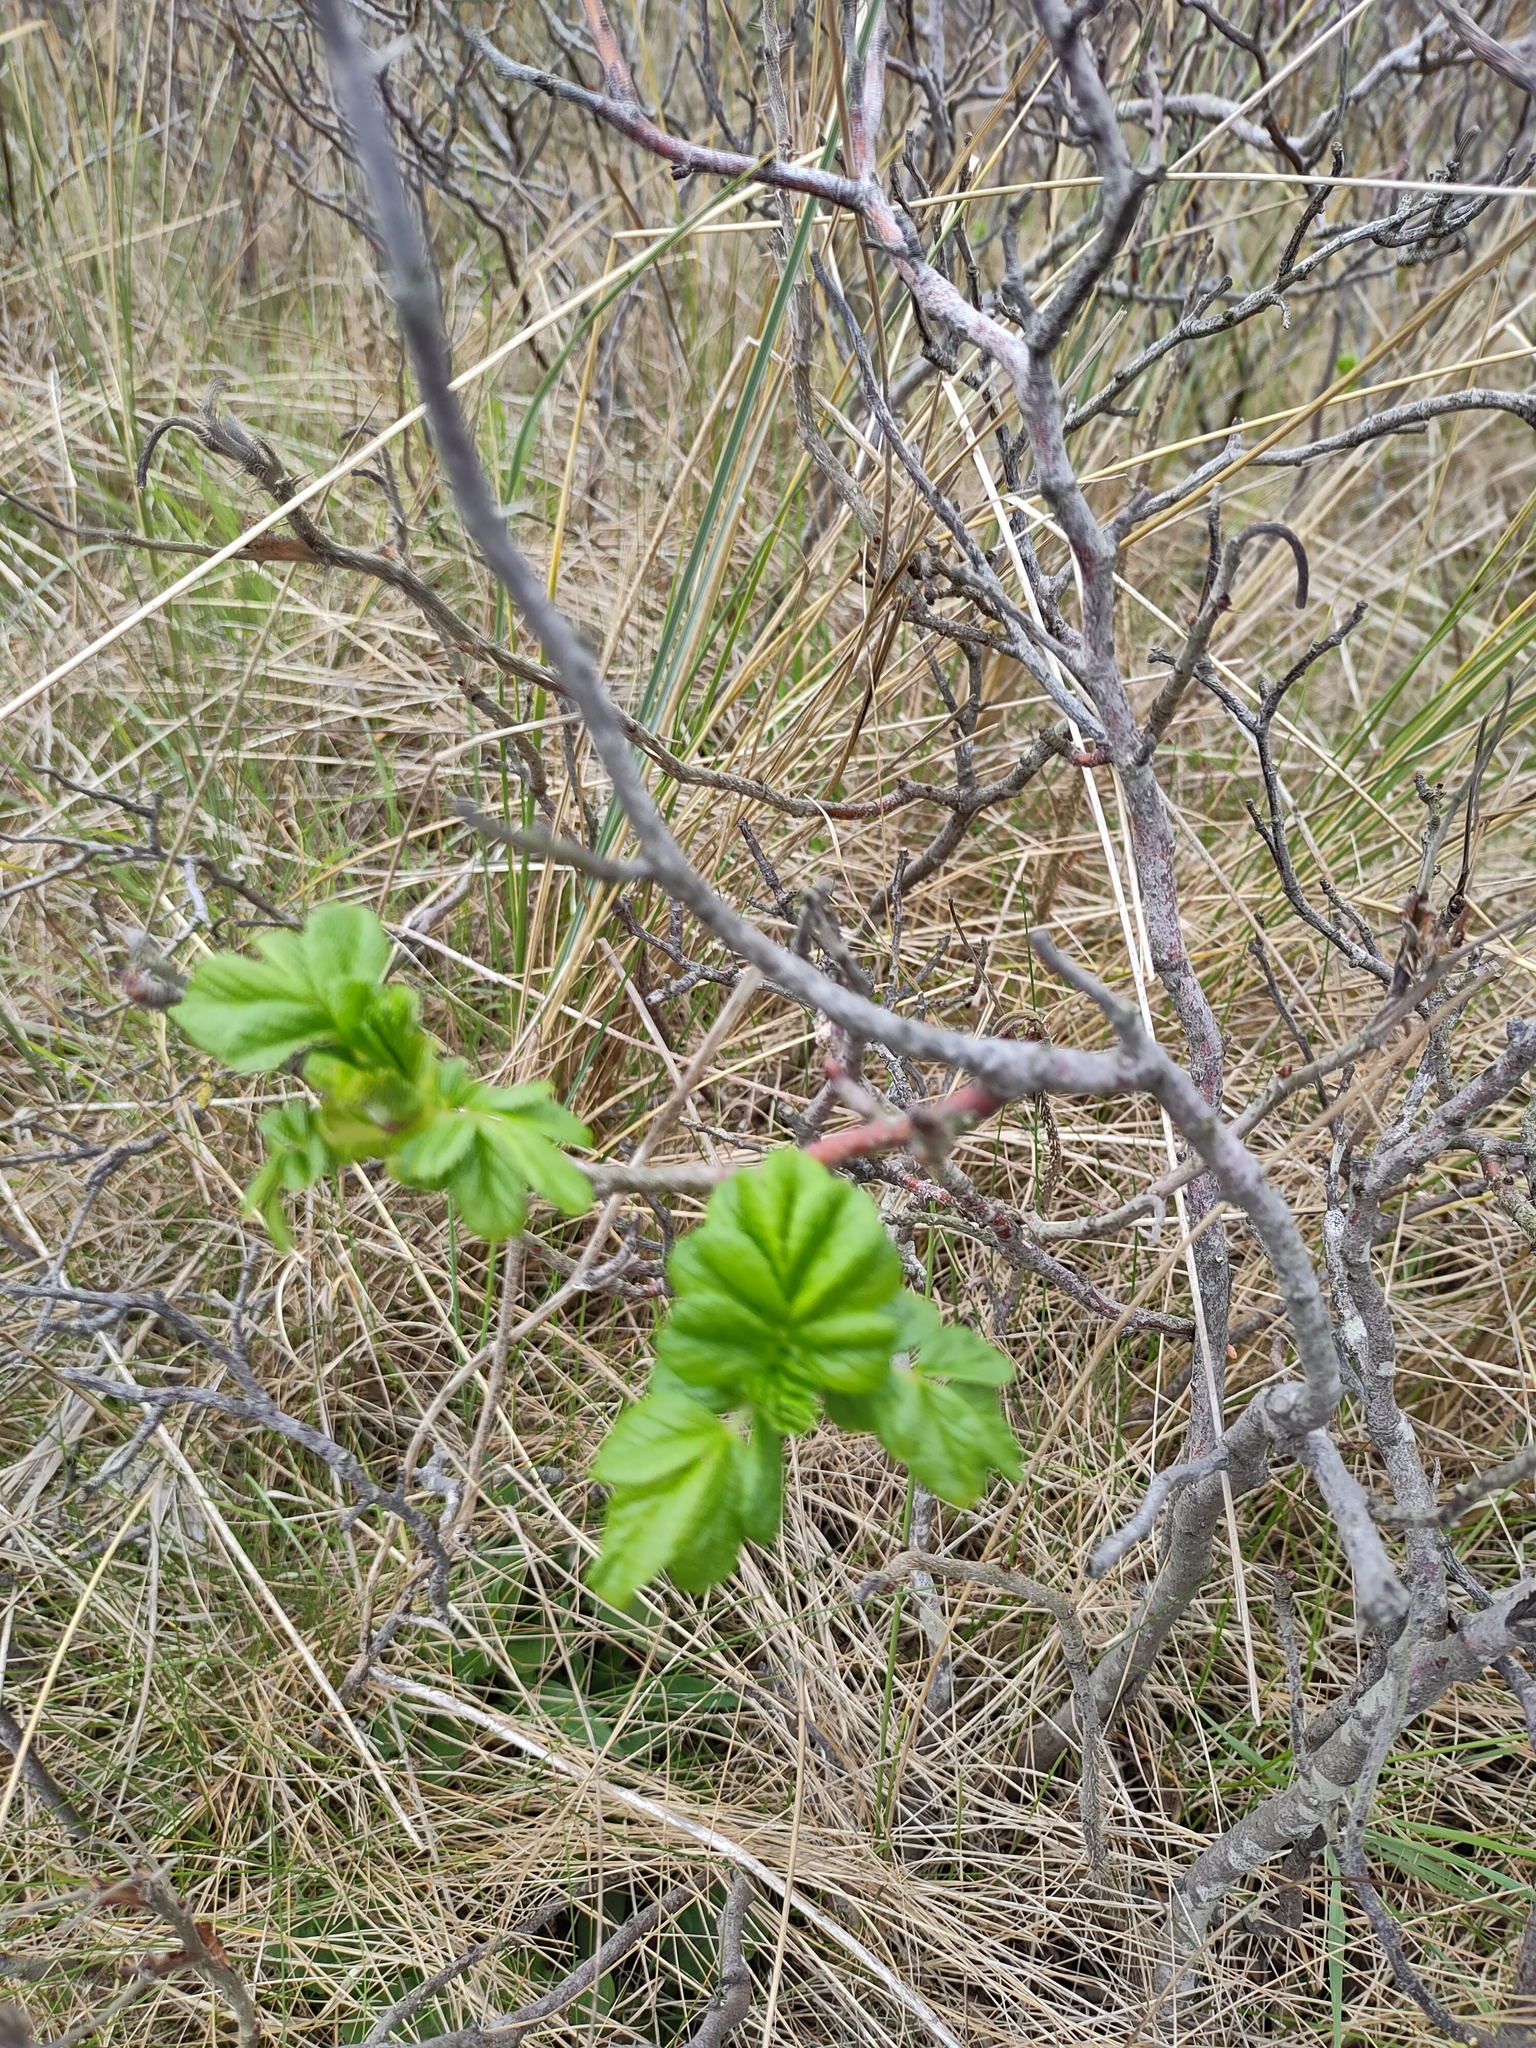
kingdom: Plantae
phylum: Tracheophyta
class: Magnoliopsida
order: Rosales
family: Rosaceae
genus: Rosa
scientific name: Rosa rugosa
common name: Japanese rose
